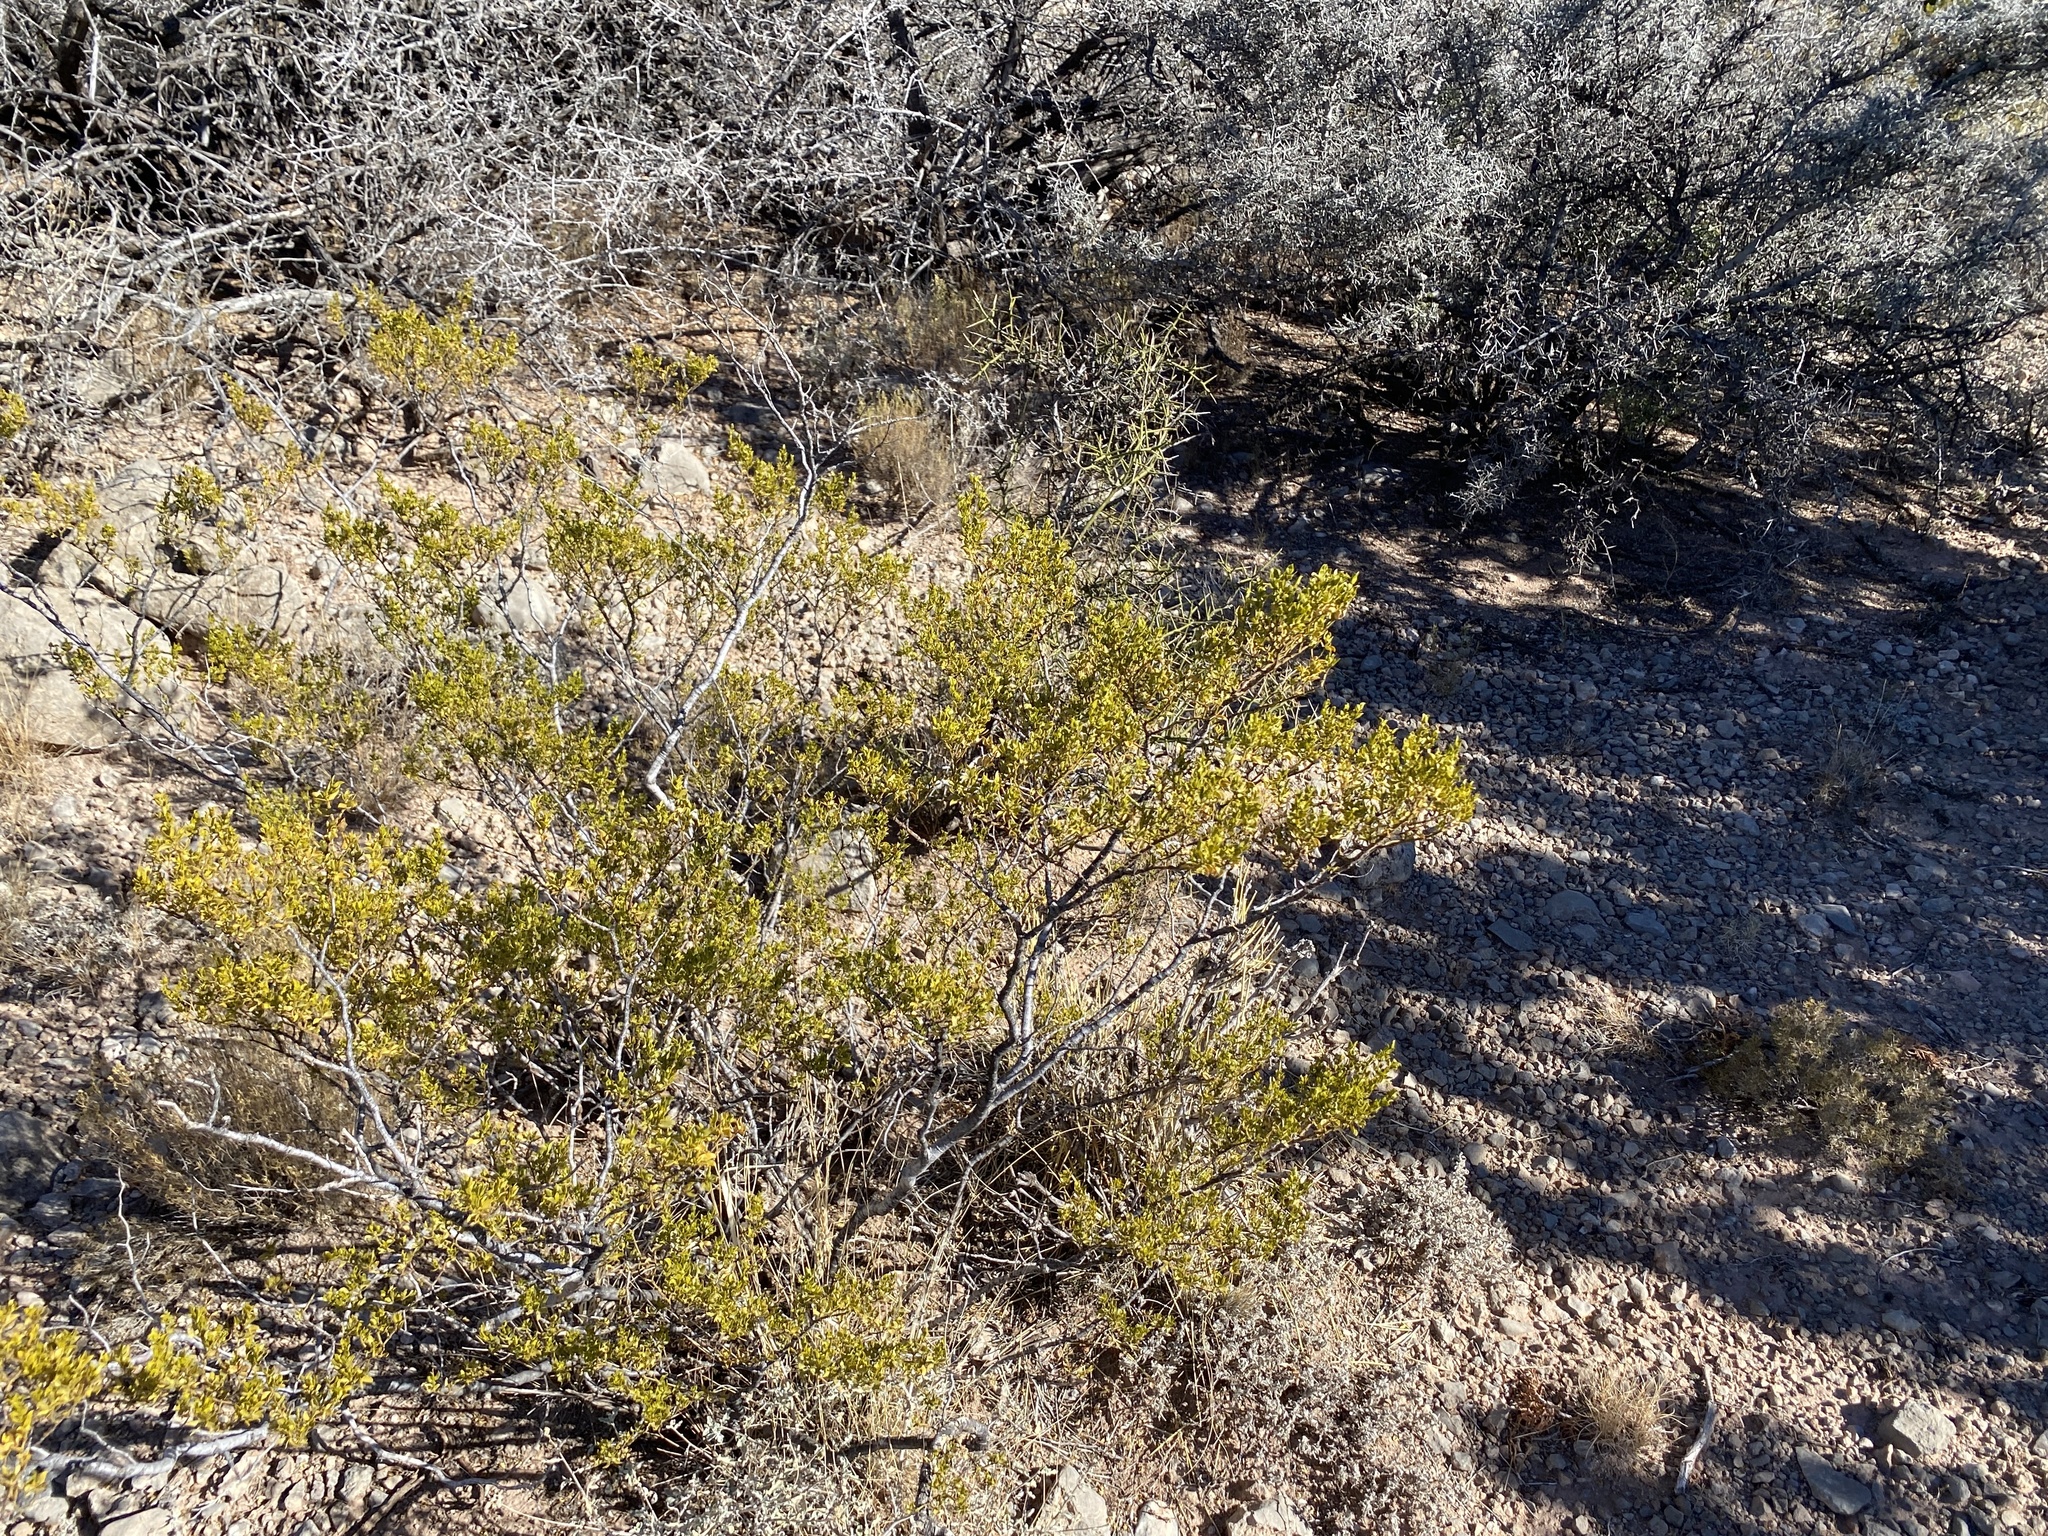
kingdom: Plantae
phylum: Tracheophyta
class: Magnoliopsida
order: Zygophyllales
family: Zygophyllaceae
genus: Larrea
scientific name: Larrea tridentata
